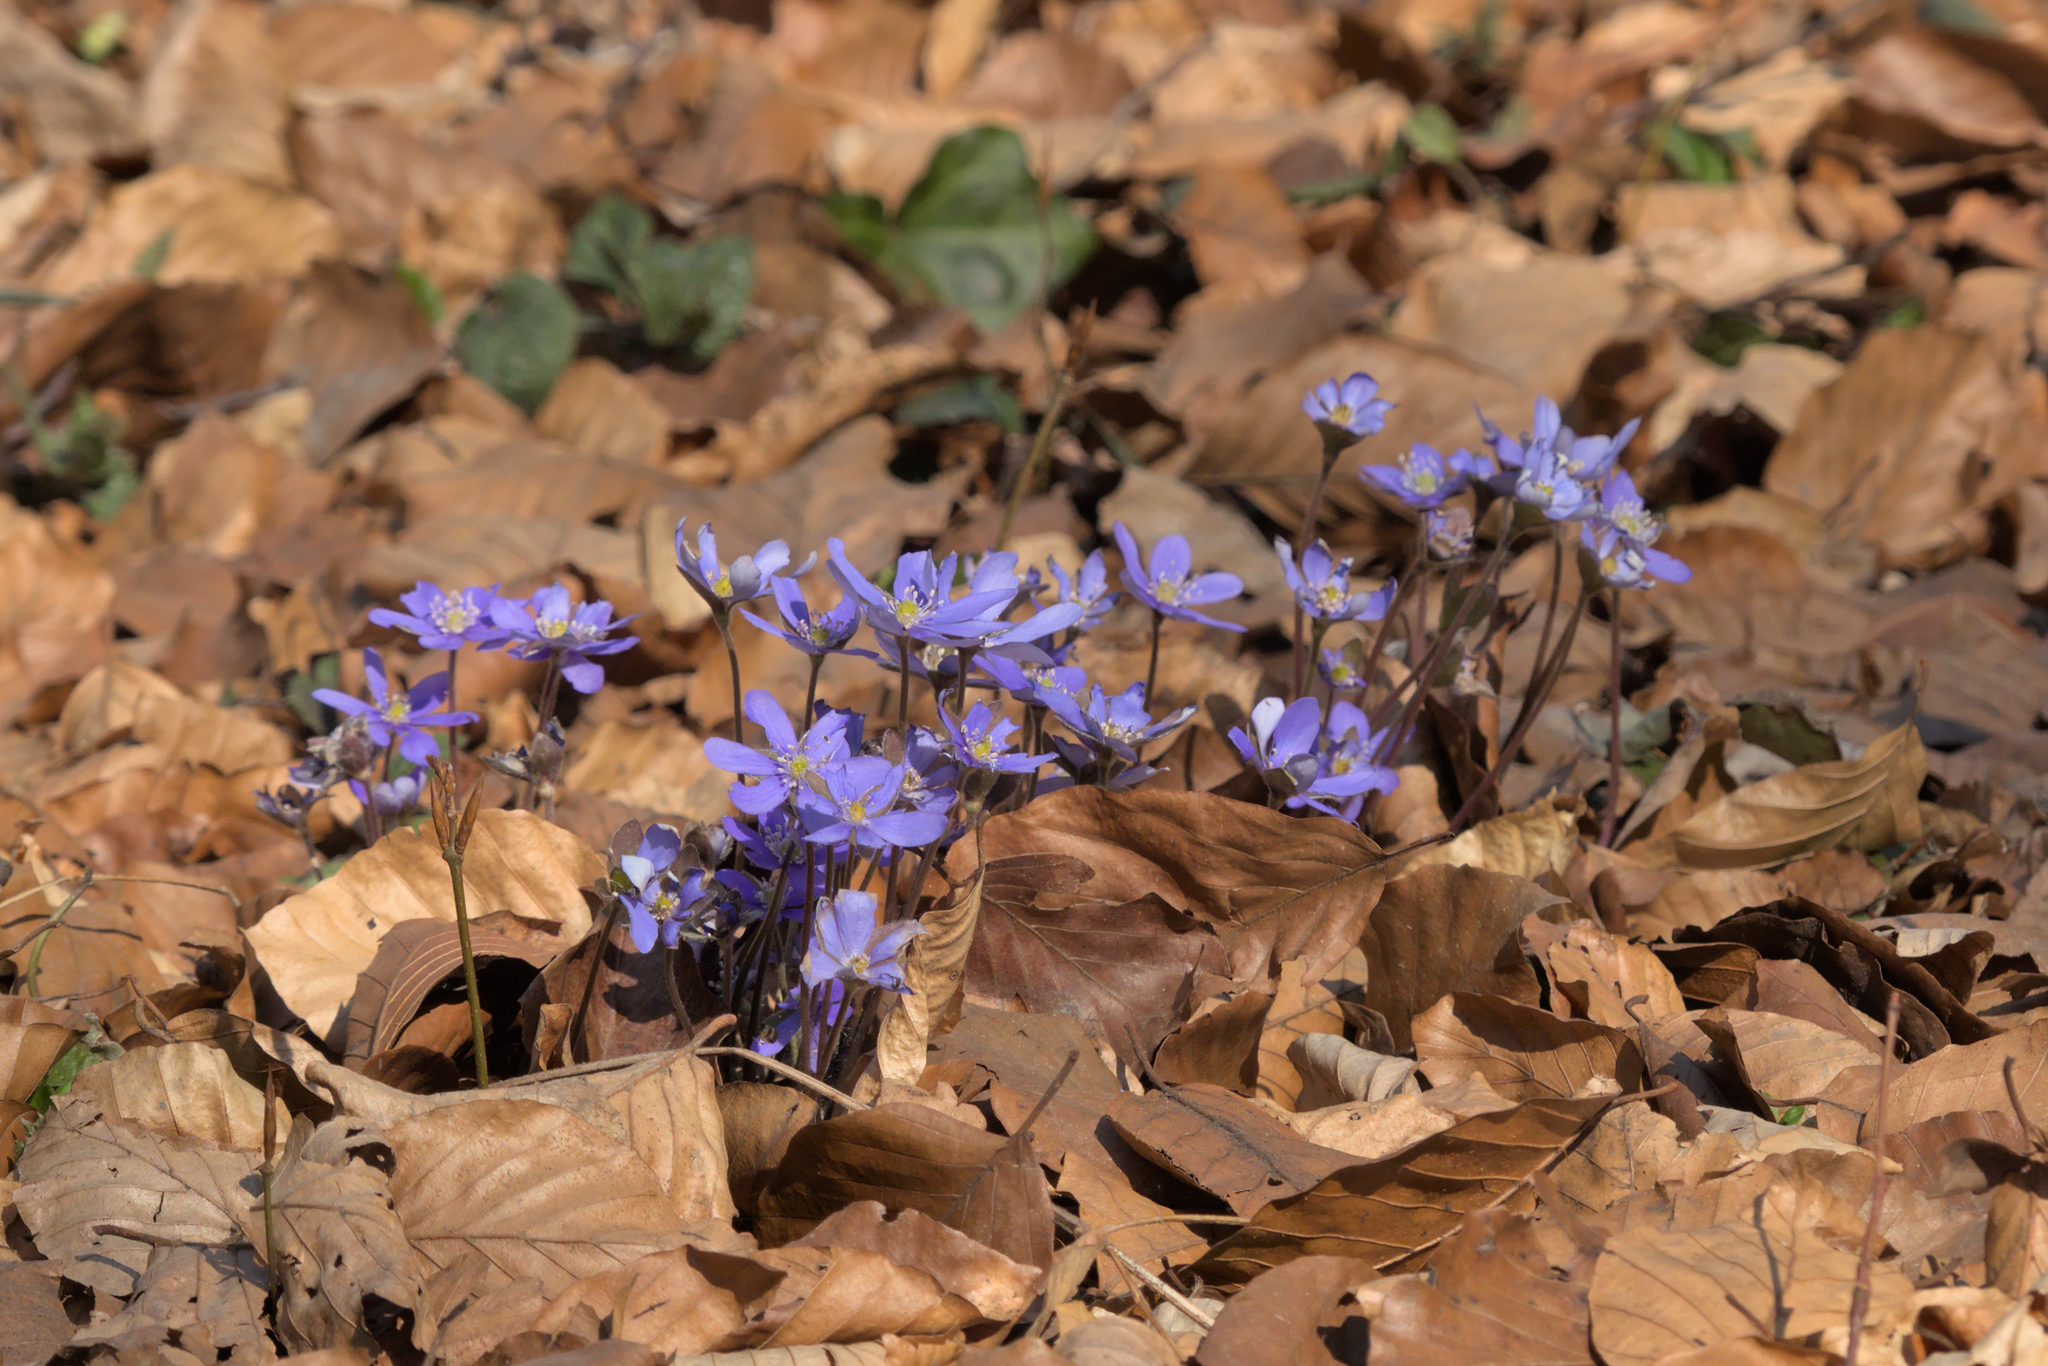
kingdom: Plantae
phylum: Tracheophyta
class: Magnoliopsida
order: Ranunculales
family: Ranunculaceae
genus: Hepatica
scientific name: Hepatica nobilis
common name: Liverleaf
